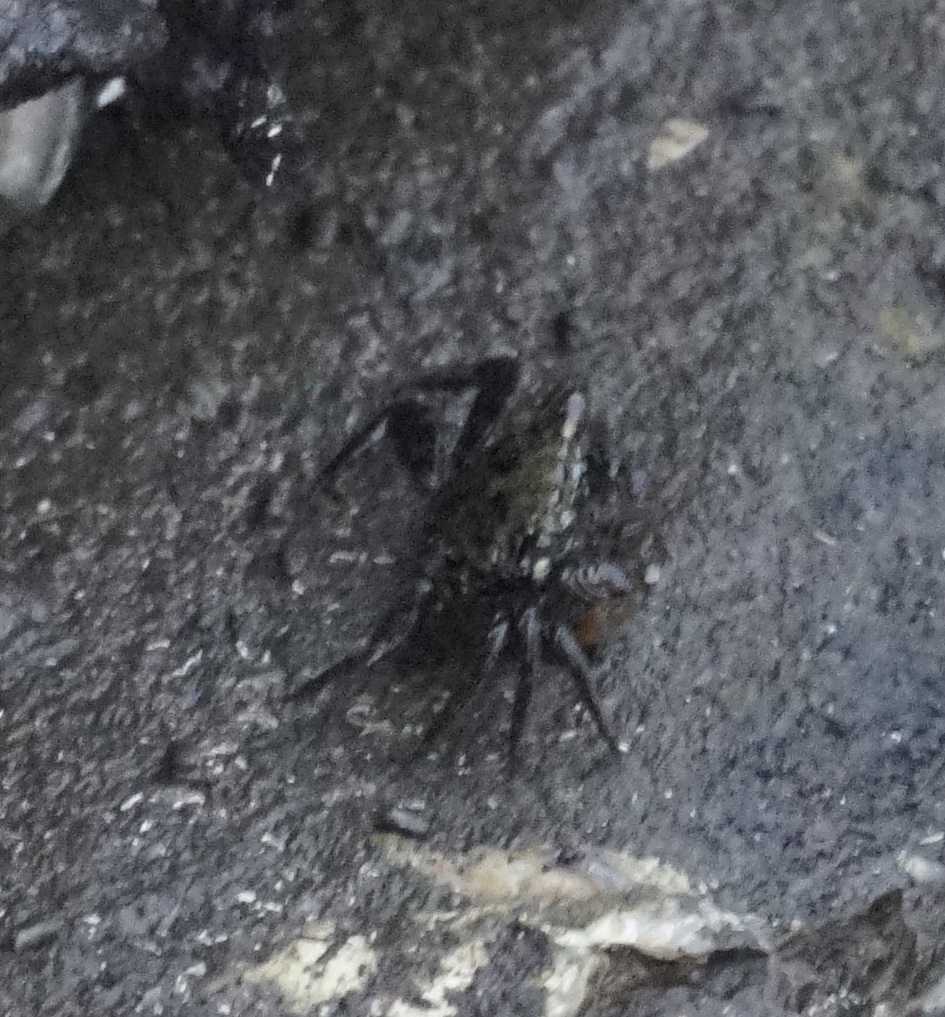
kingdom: Animalia
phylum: Arthropoda
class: Malacostraca
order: Decapoda
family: Sesarmidae
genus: Parasesarma
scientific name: Parasesarma erythodactylum
